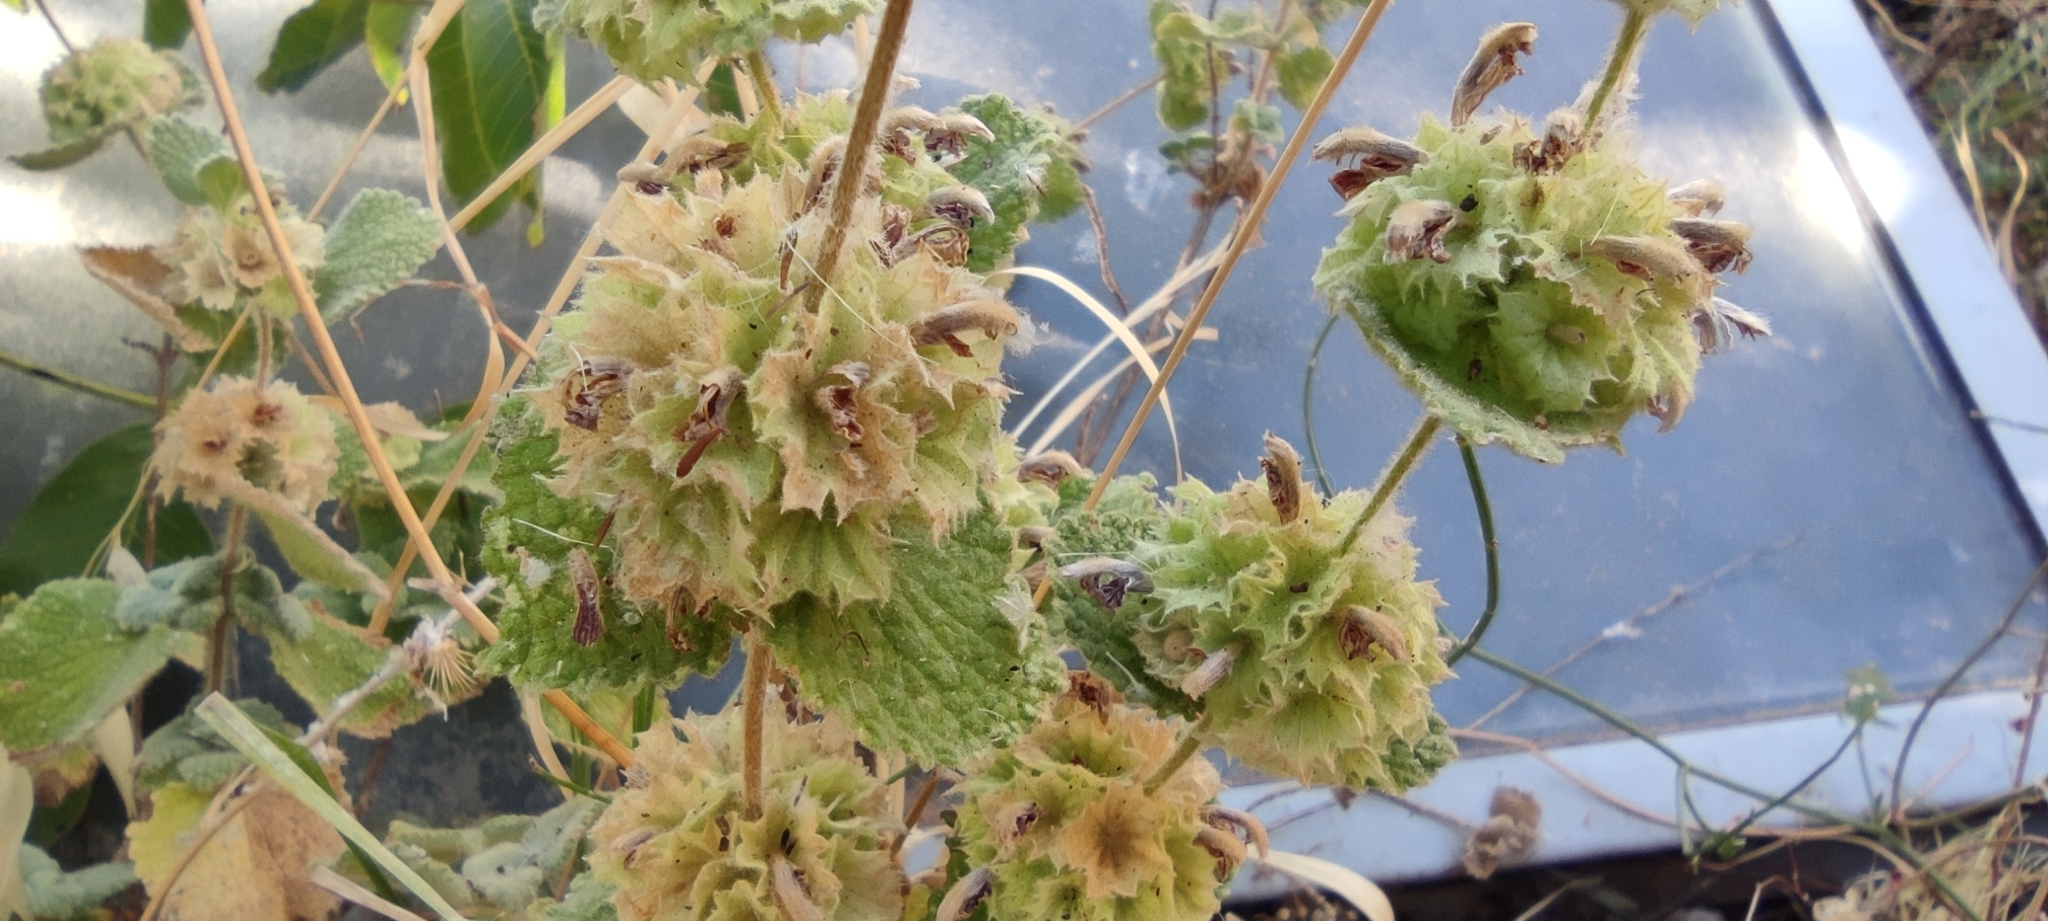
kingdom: Plantae
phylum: Tracheophyta
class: Magnoliopsida
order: Lamiales
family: Lamiaceae
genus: Pseudodictamnus
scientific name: Pseudodictamnus hirsutus
